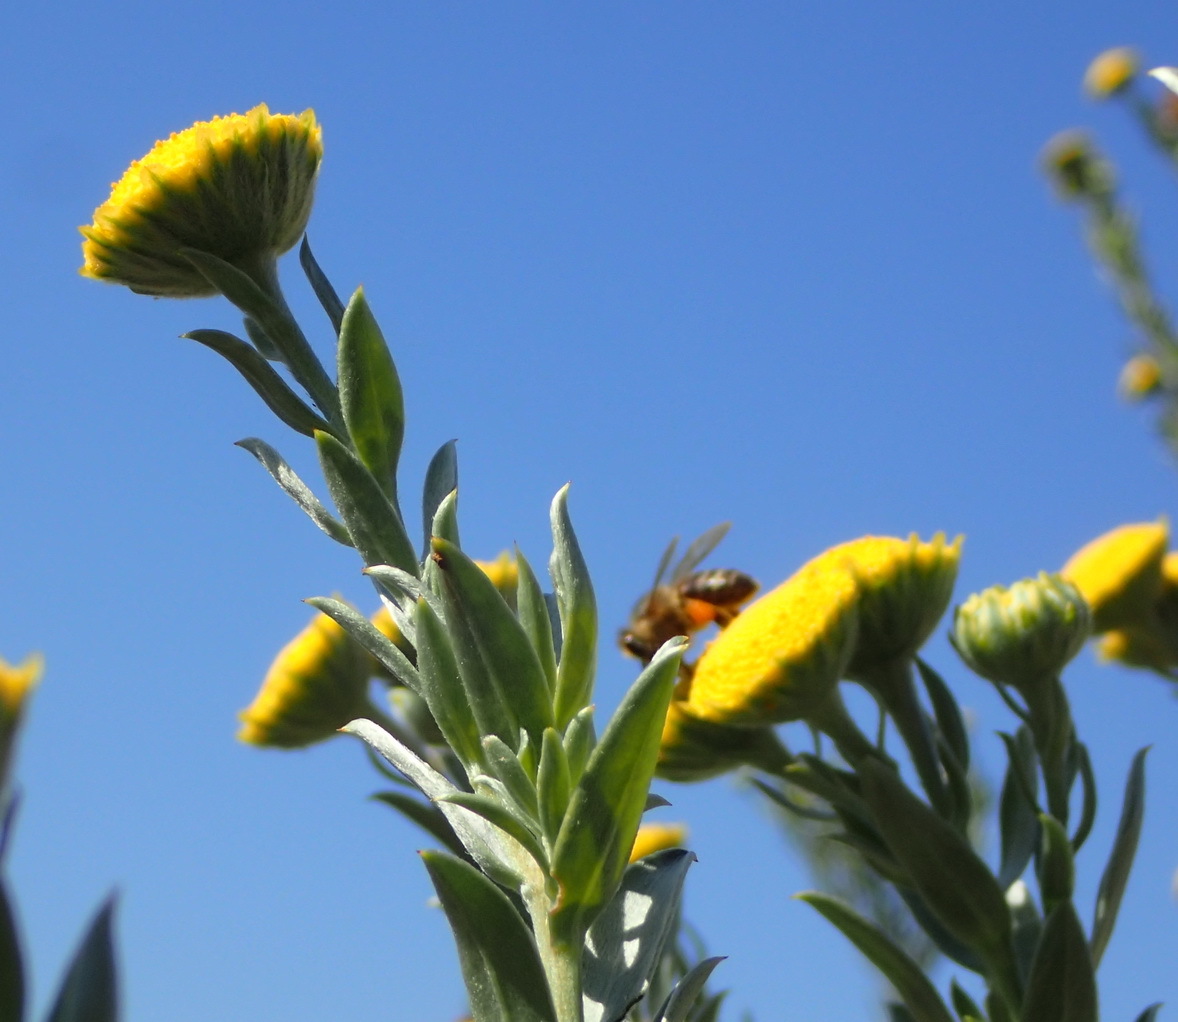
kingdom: Plantae
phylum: Tracheophyta
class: Magnoliopsida
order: Asterales
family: Asteraceae
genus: Schistostephium
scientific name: Schistostephium umbellatum
